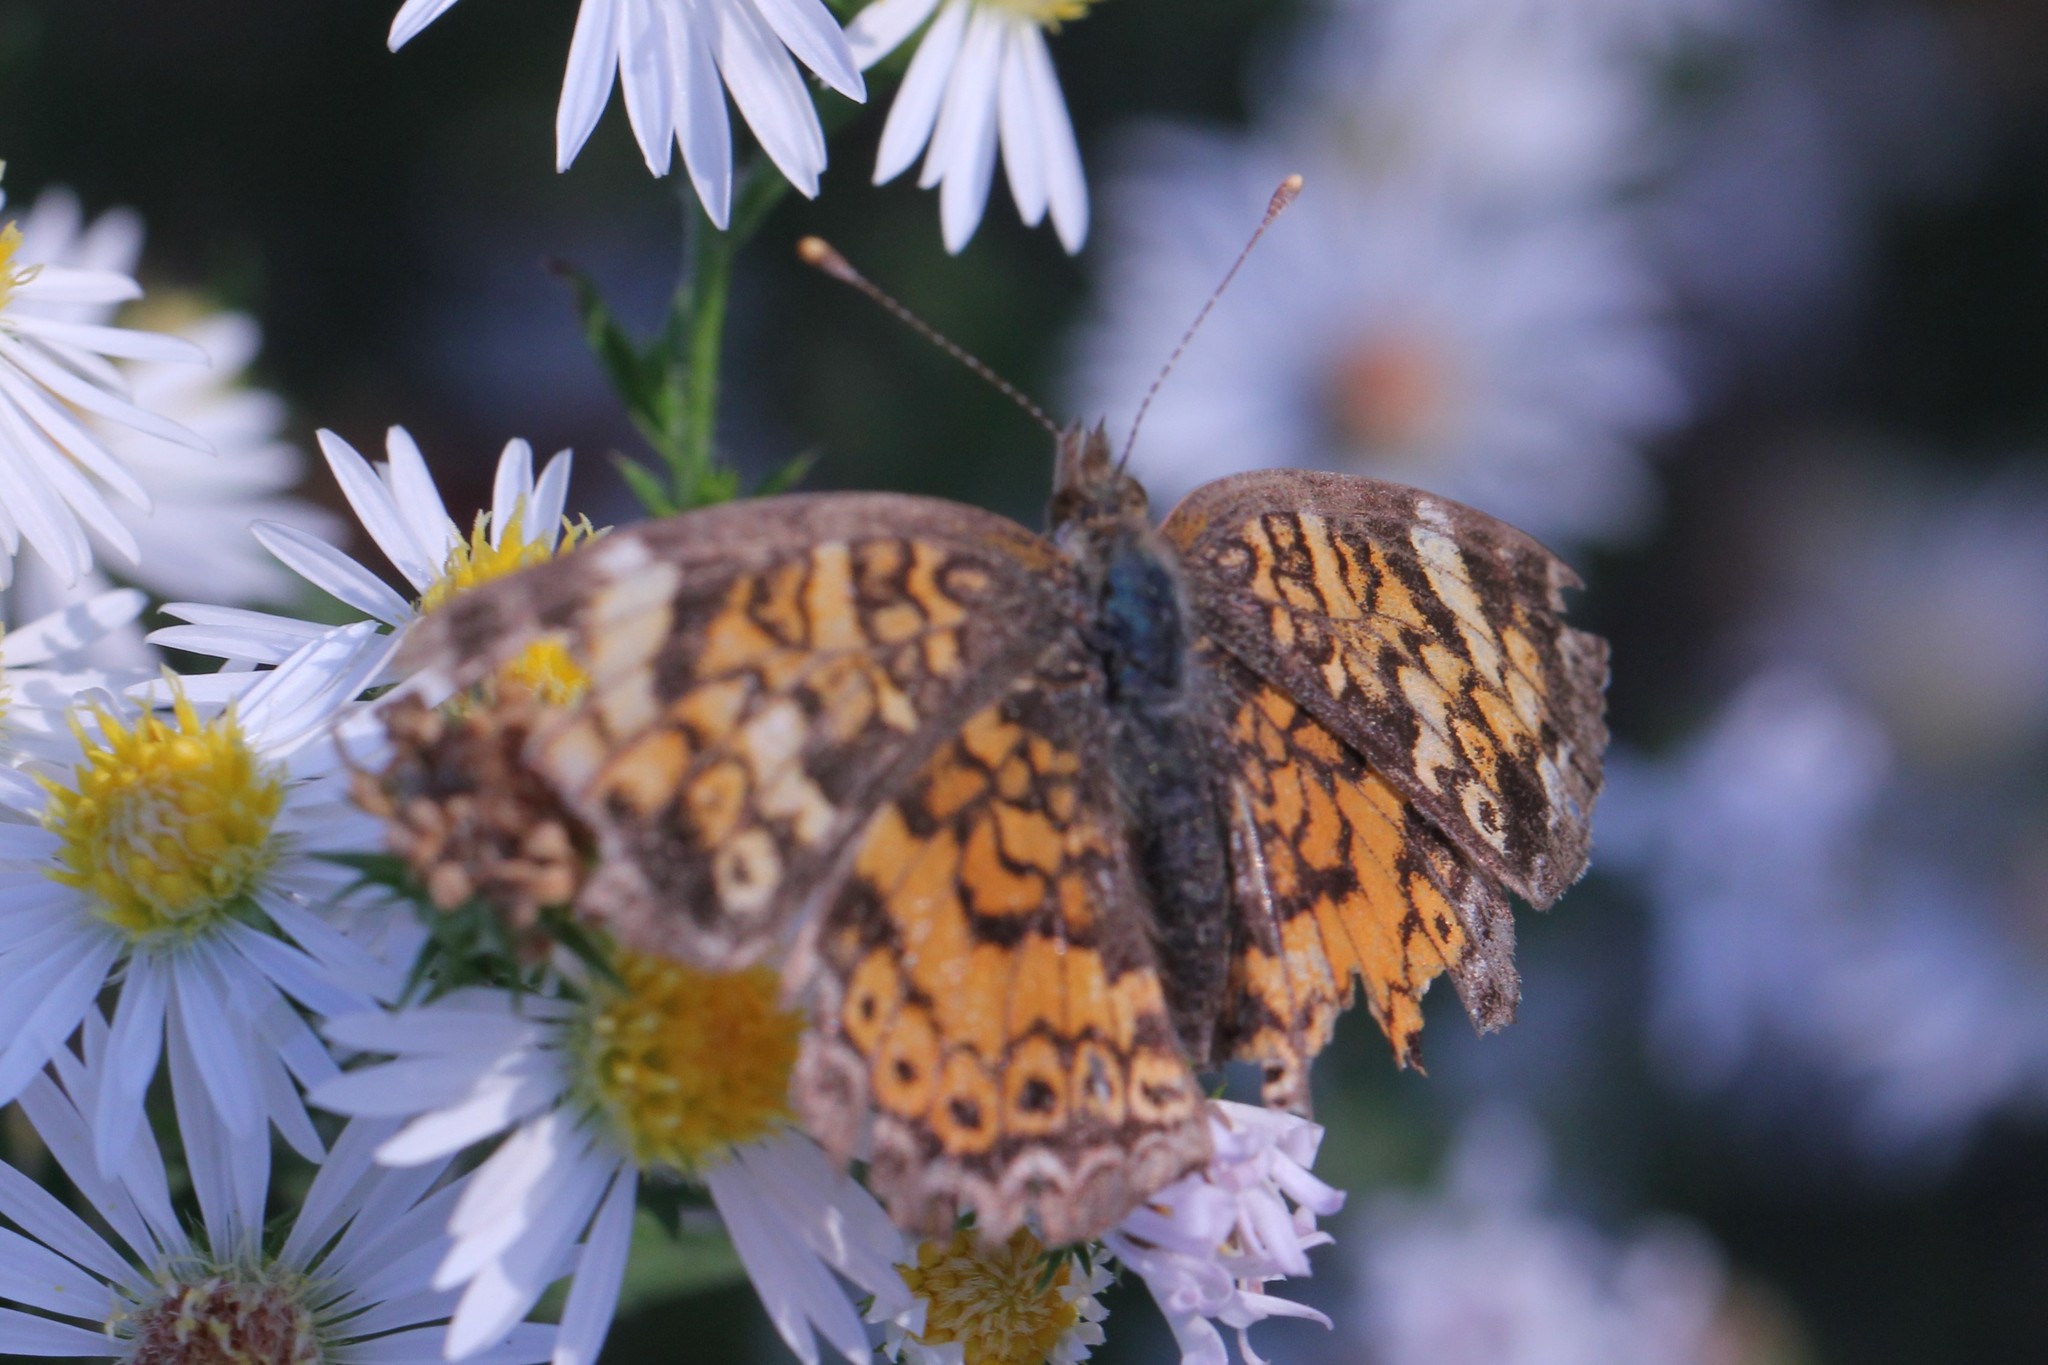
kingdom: Animalia
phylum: Arthropoda
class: Insecta
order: Lepidoptera
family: Nymphalidae
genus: Phyciodes
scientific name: Phyciodes tharos
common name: Pearl crescent
